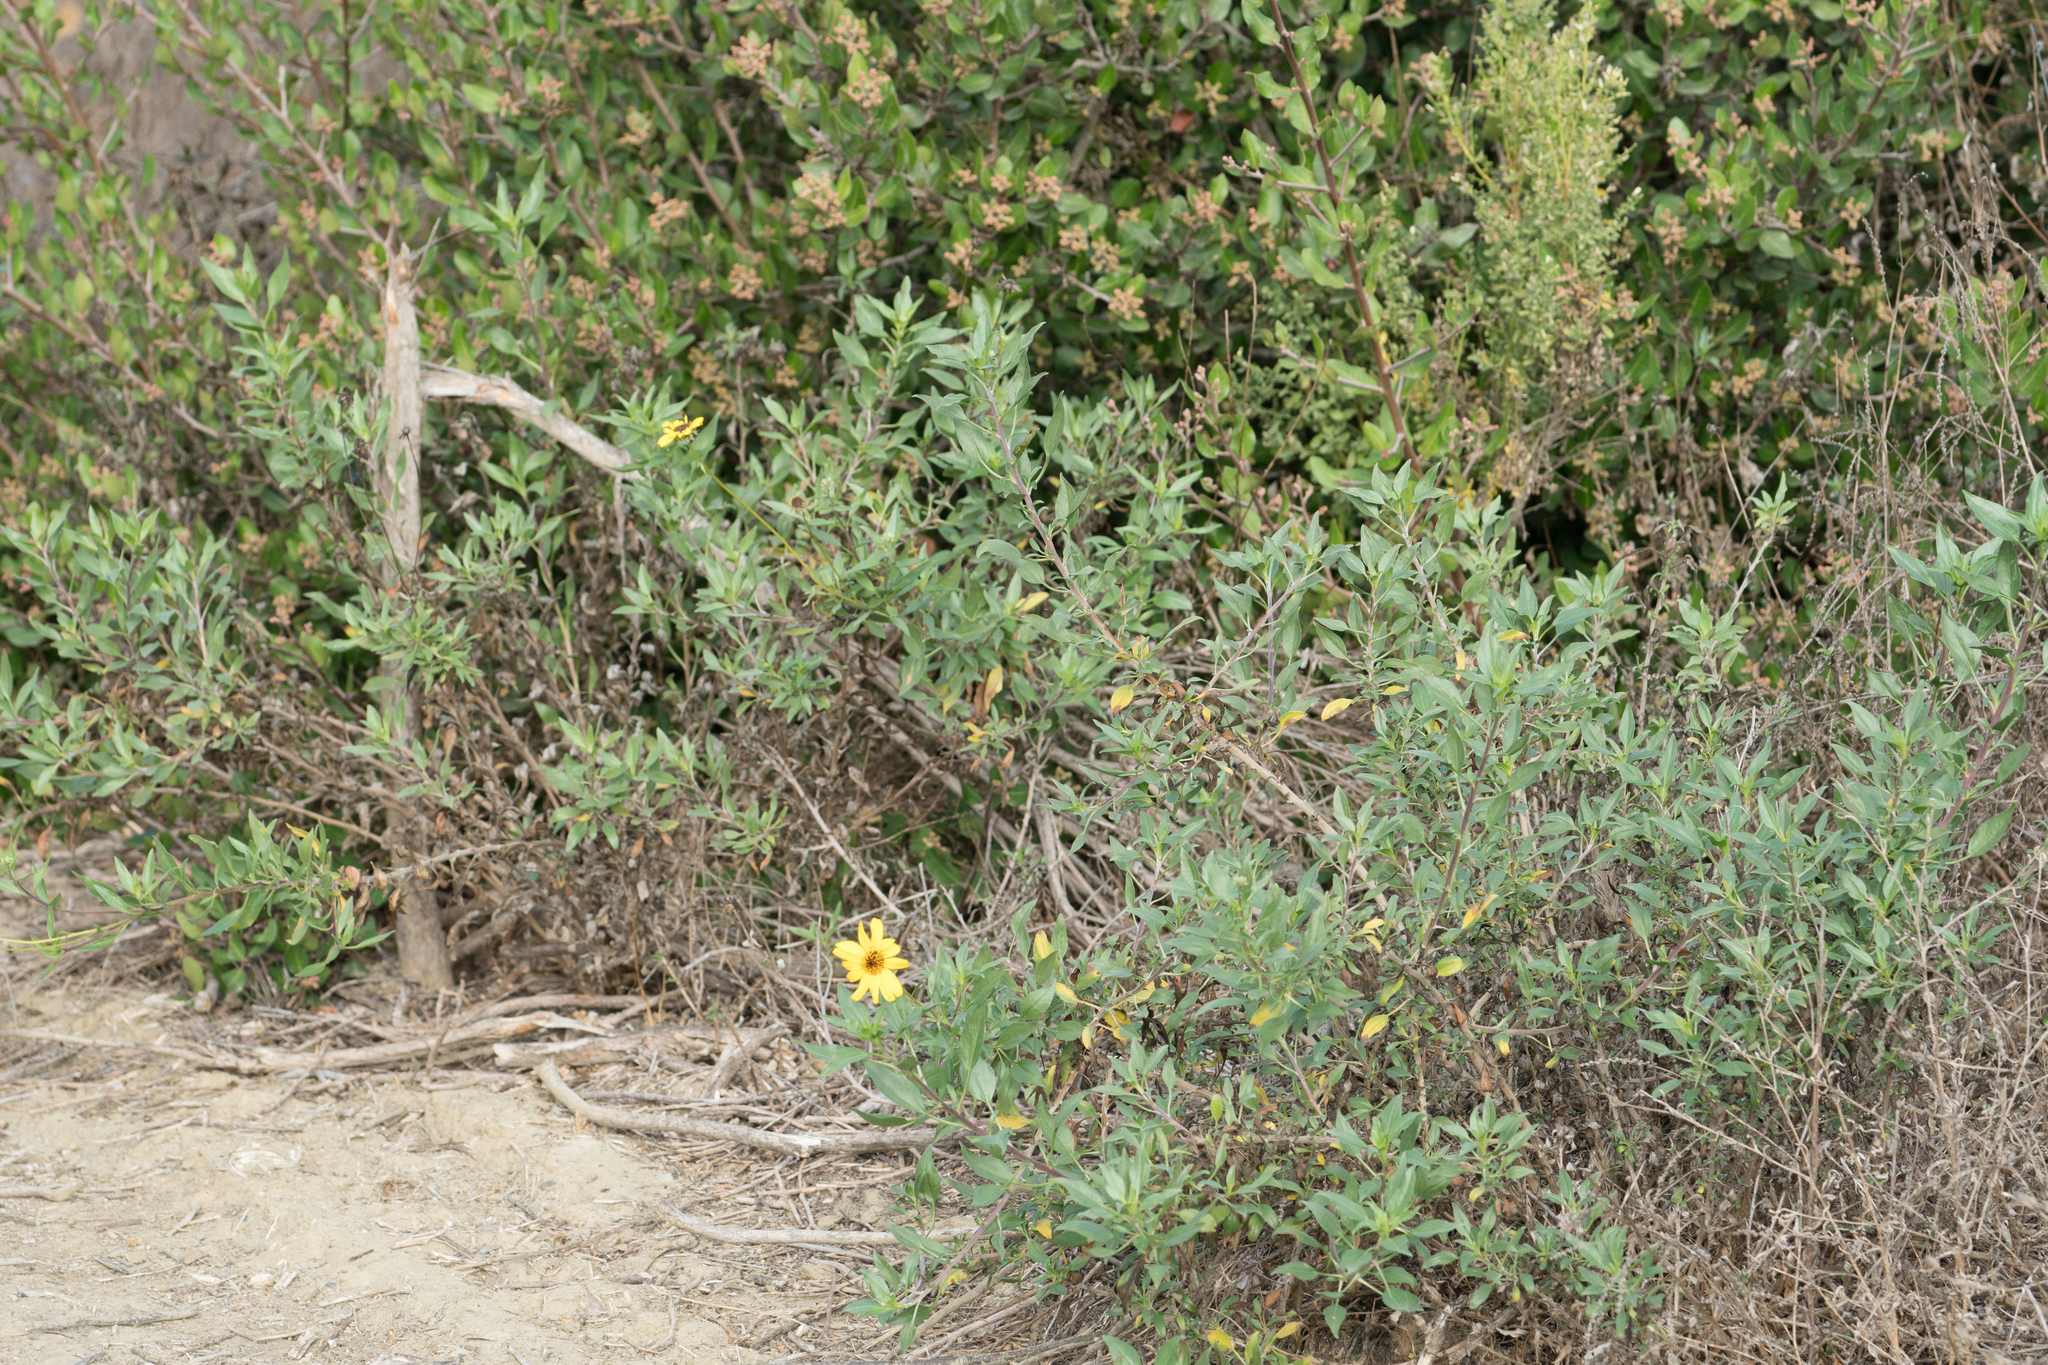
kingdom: Plantae
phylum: Tracheophyta
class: Magnoliopsida
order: Asterales
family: Asteraceae
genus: Encelia
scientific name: Encelia californica
